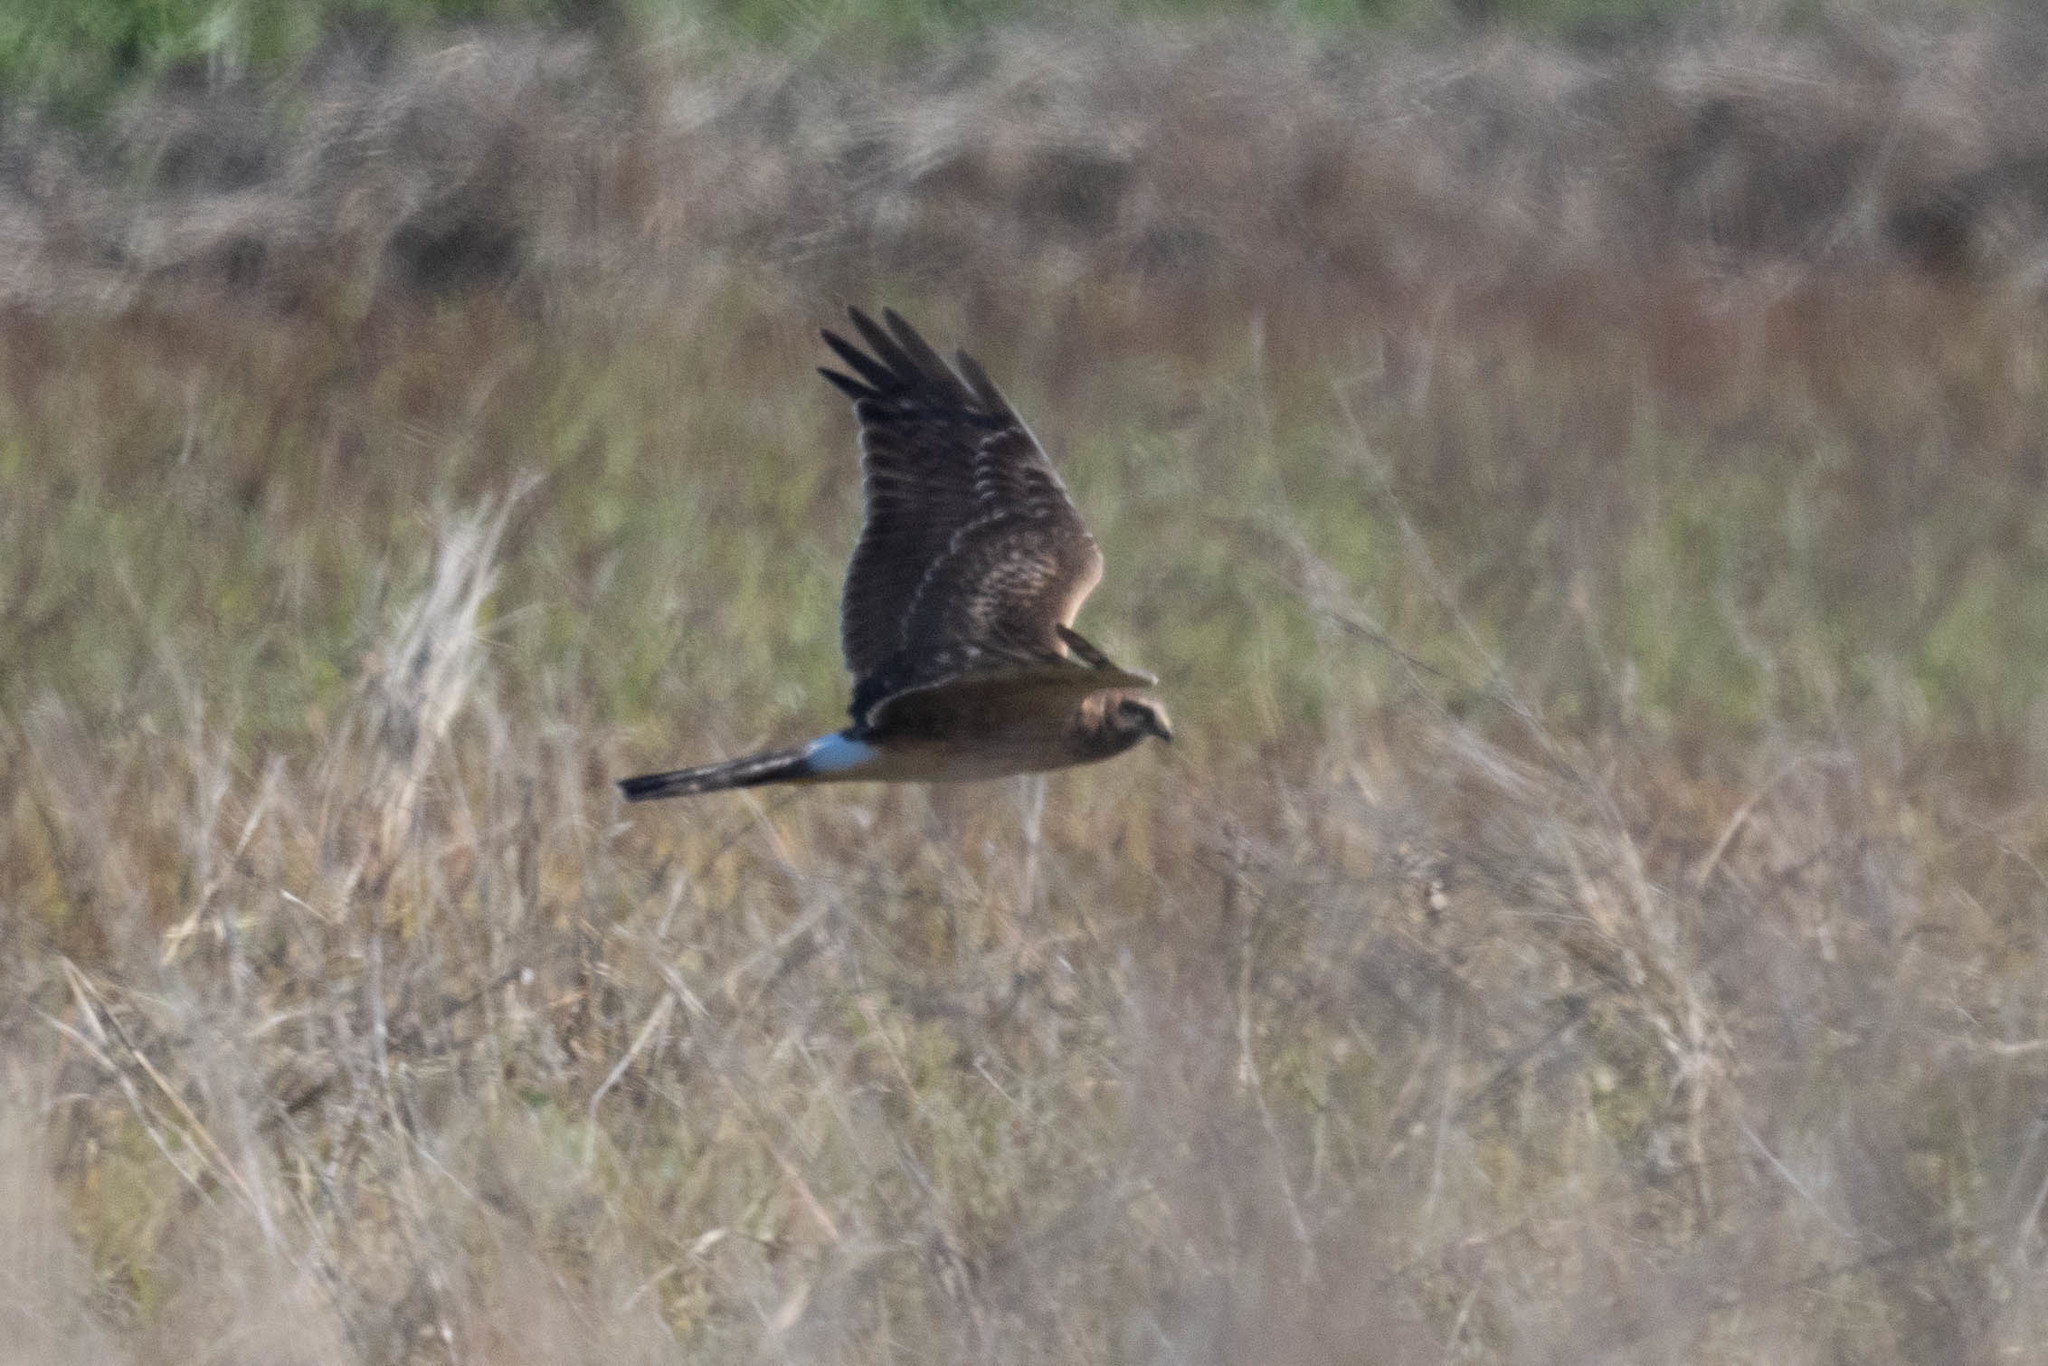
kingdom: Animalia
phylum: Chordata
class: Aves
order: Accipitriformes
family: Accipitridae
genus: Circus
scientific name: Circus cyaneus
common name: Hen harrier
